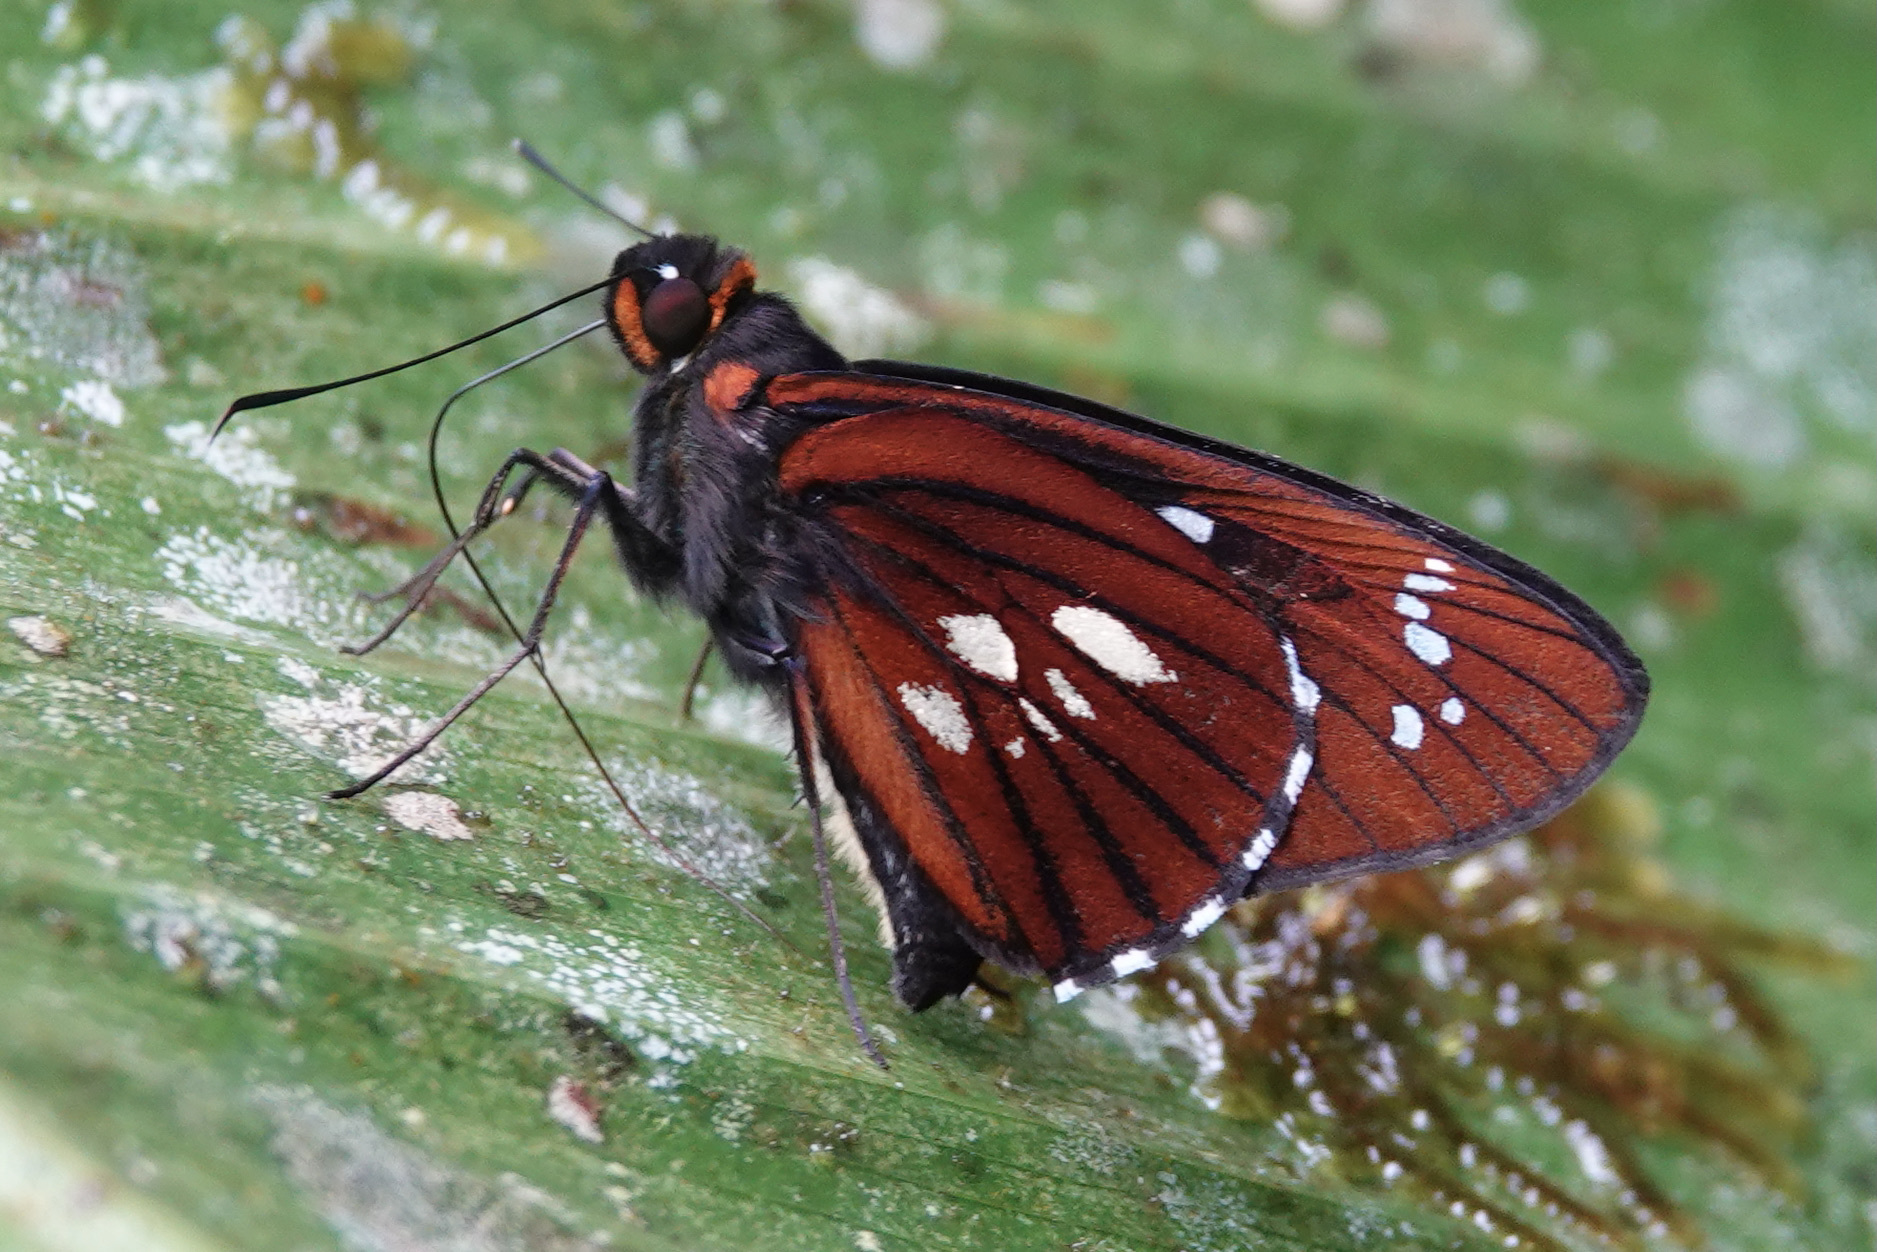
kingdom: Animalia
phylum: Arthropoda
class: Insecta
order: Lepidoptera
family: Hesperiidae
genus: Carystina
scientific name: Carystina
